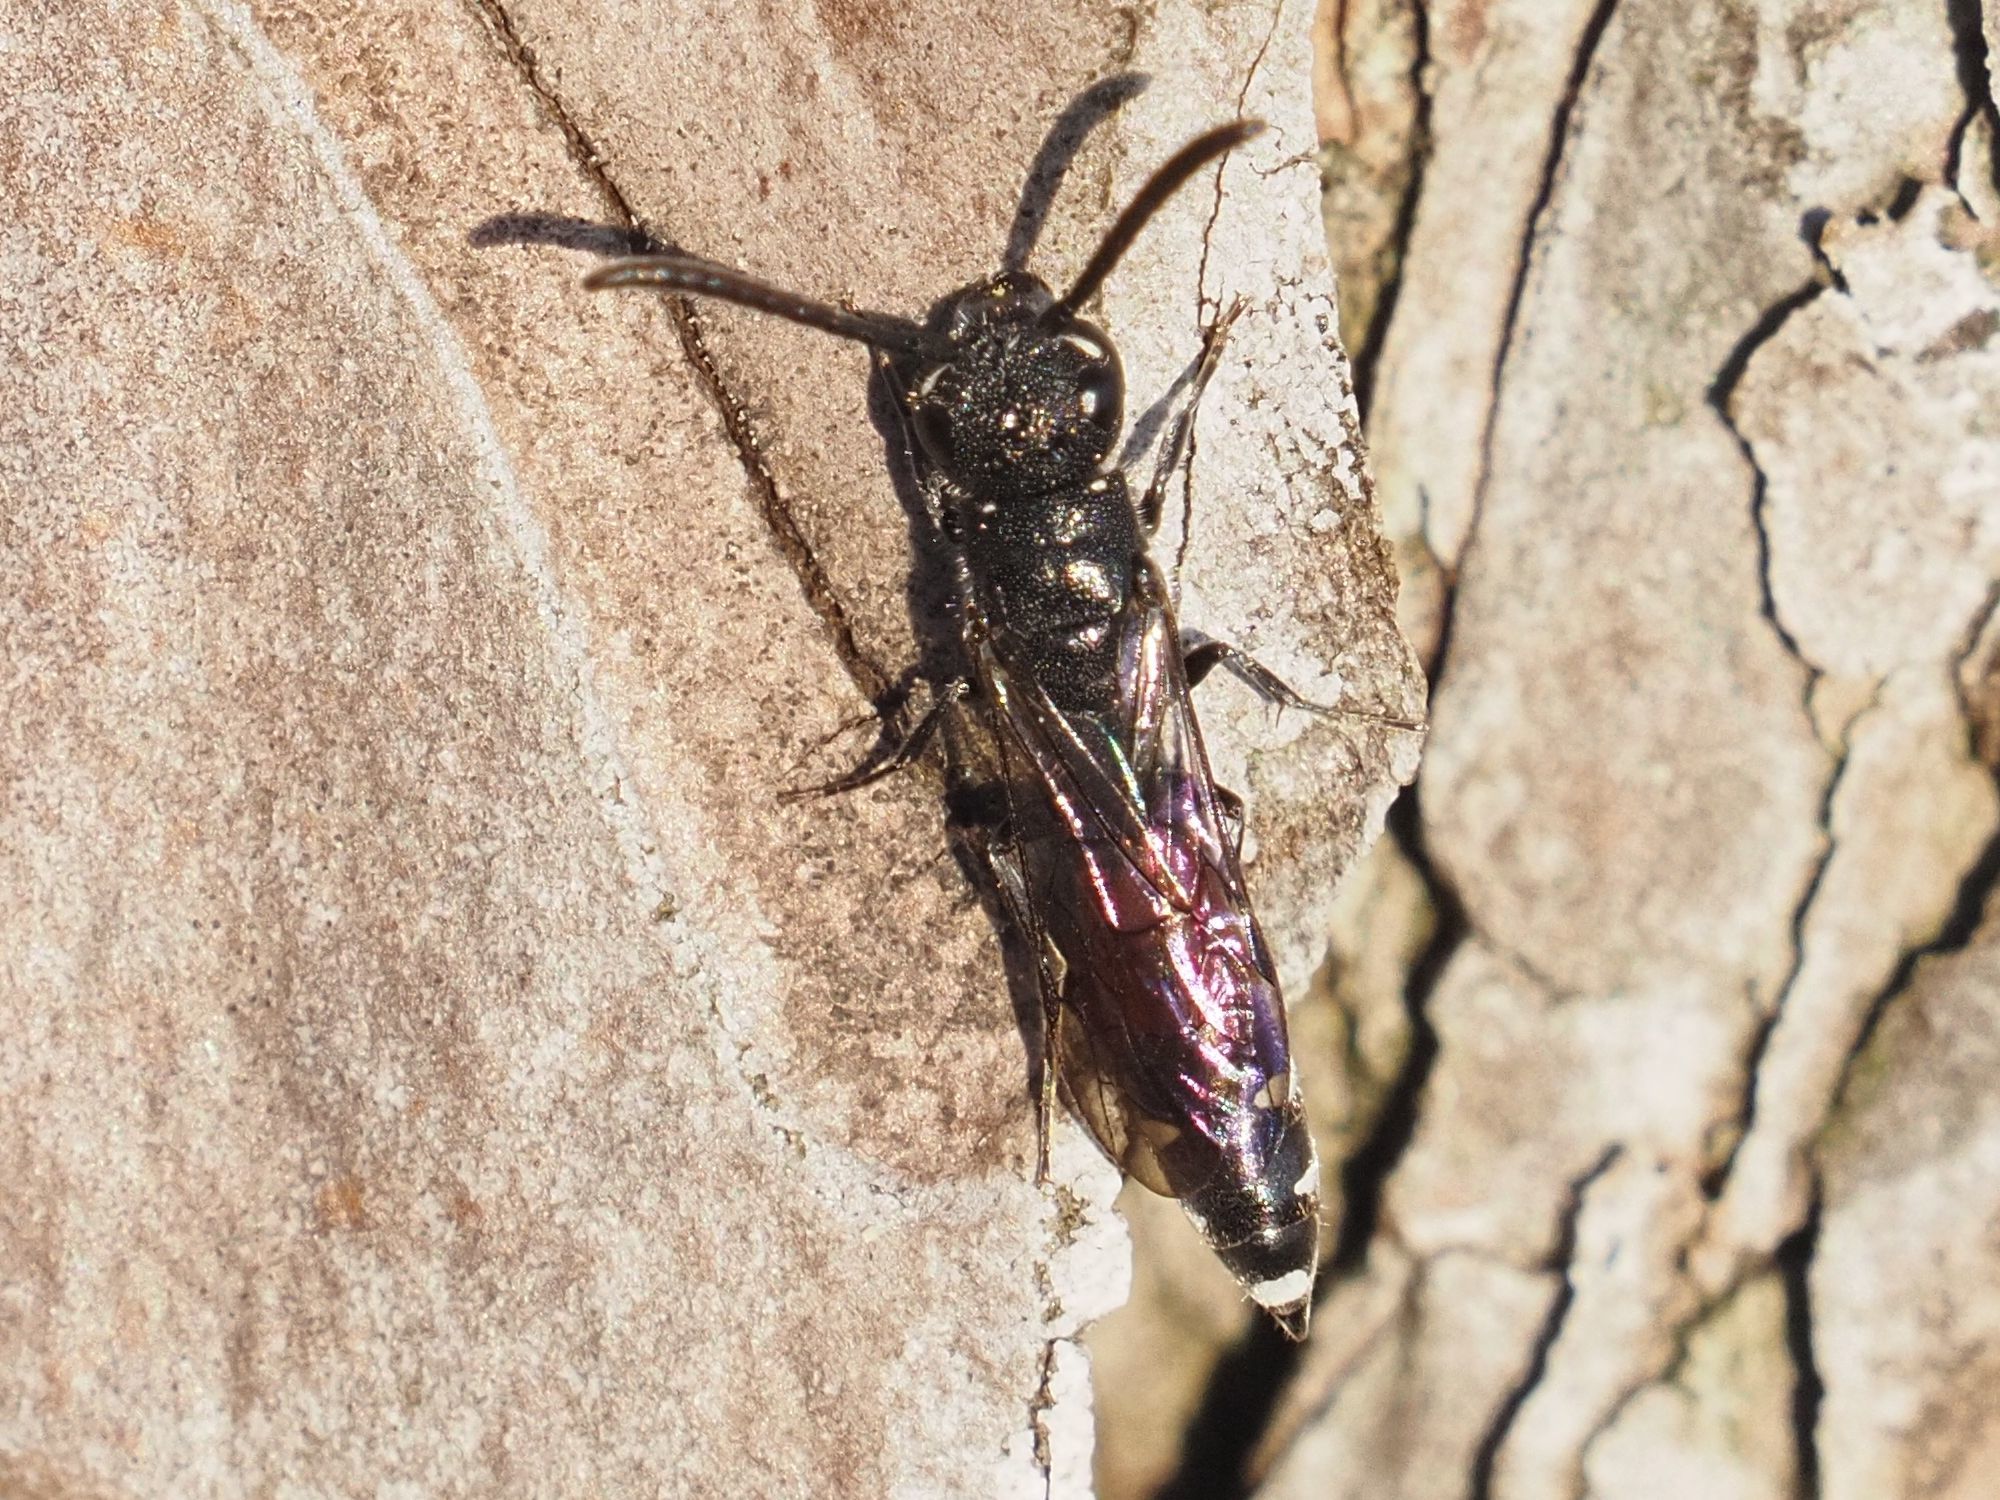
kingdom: Animalia
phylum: Arthropoda
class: Insecta
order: Hymenoptera
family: Sapygidae
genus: Sapyga
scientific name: Sapyga quinquepunctata
